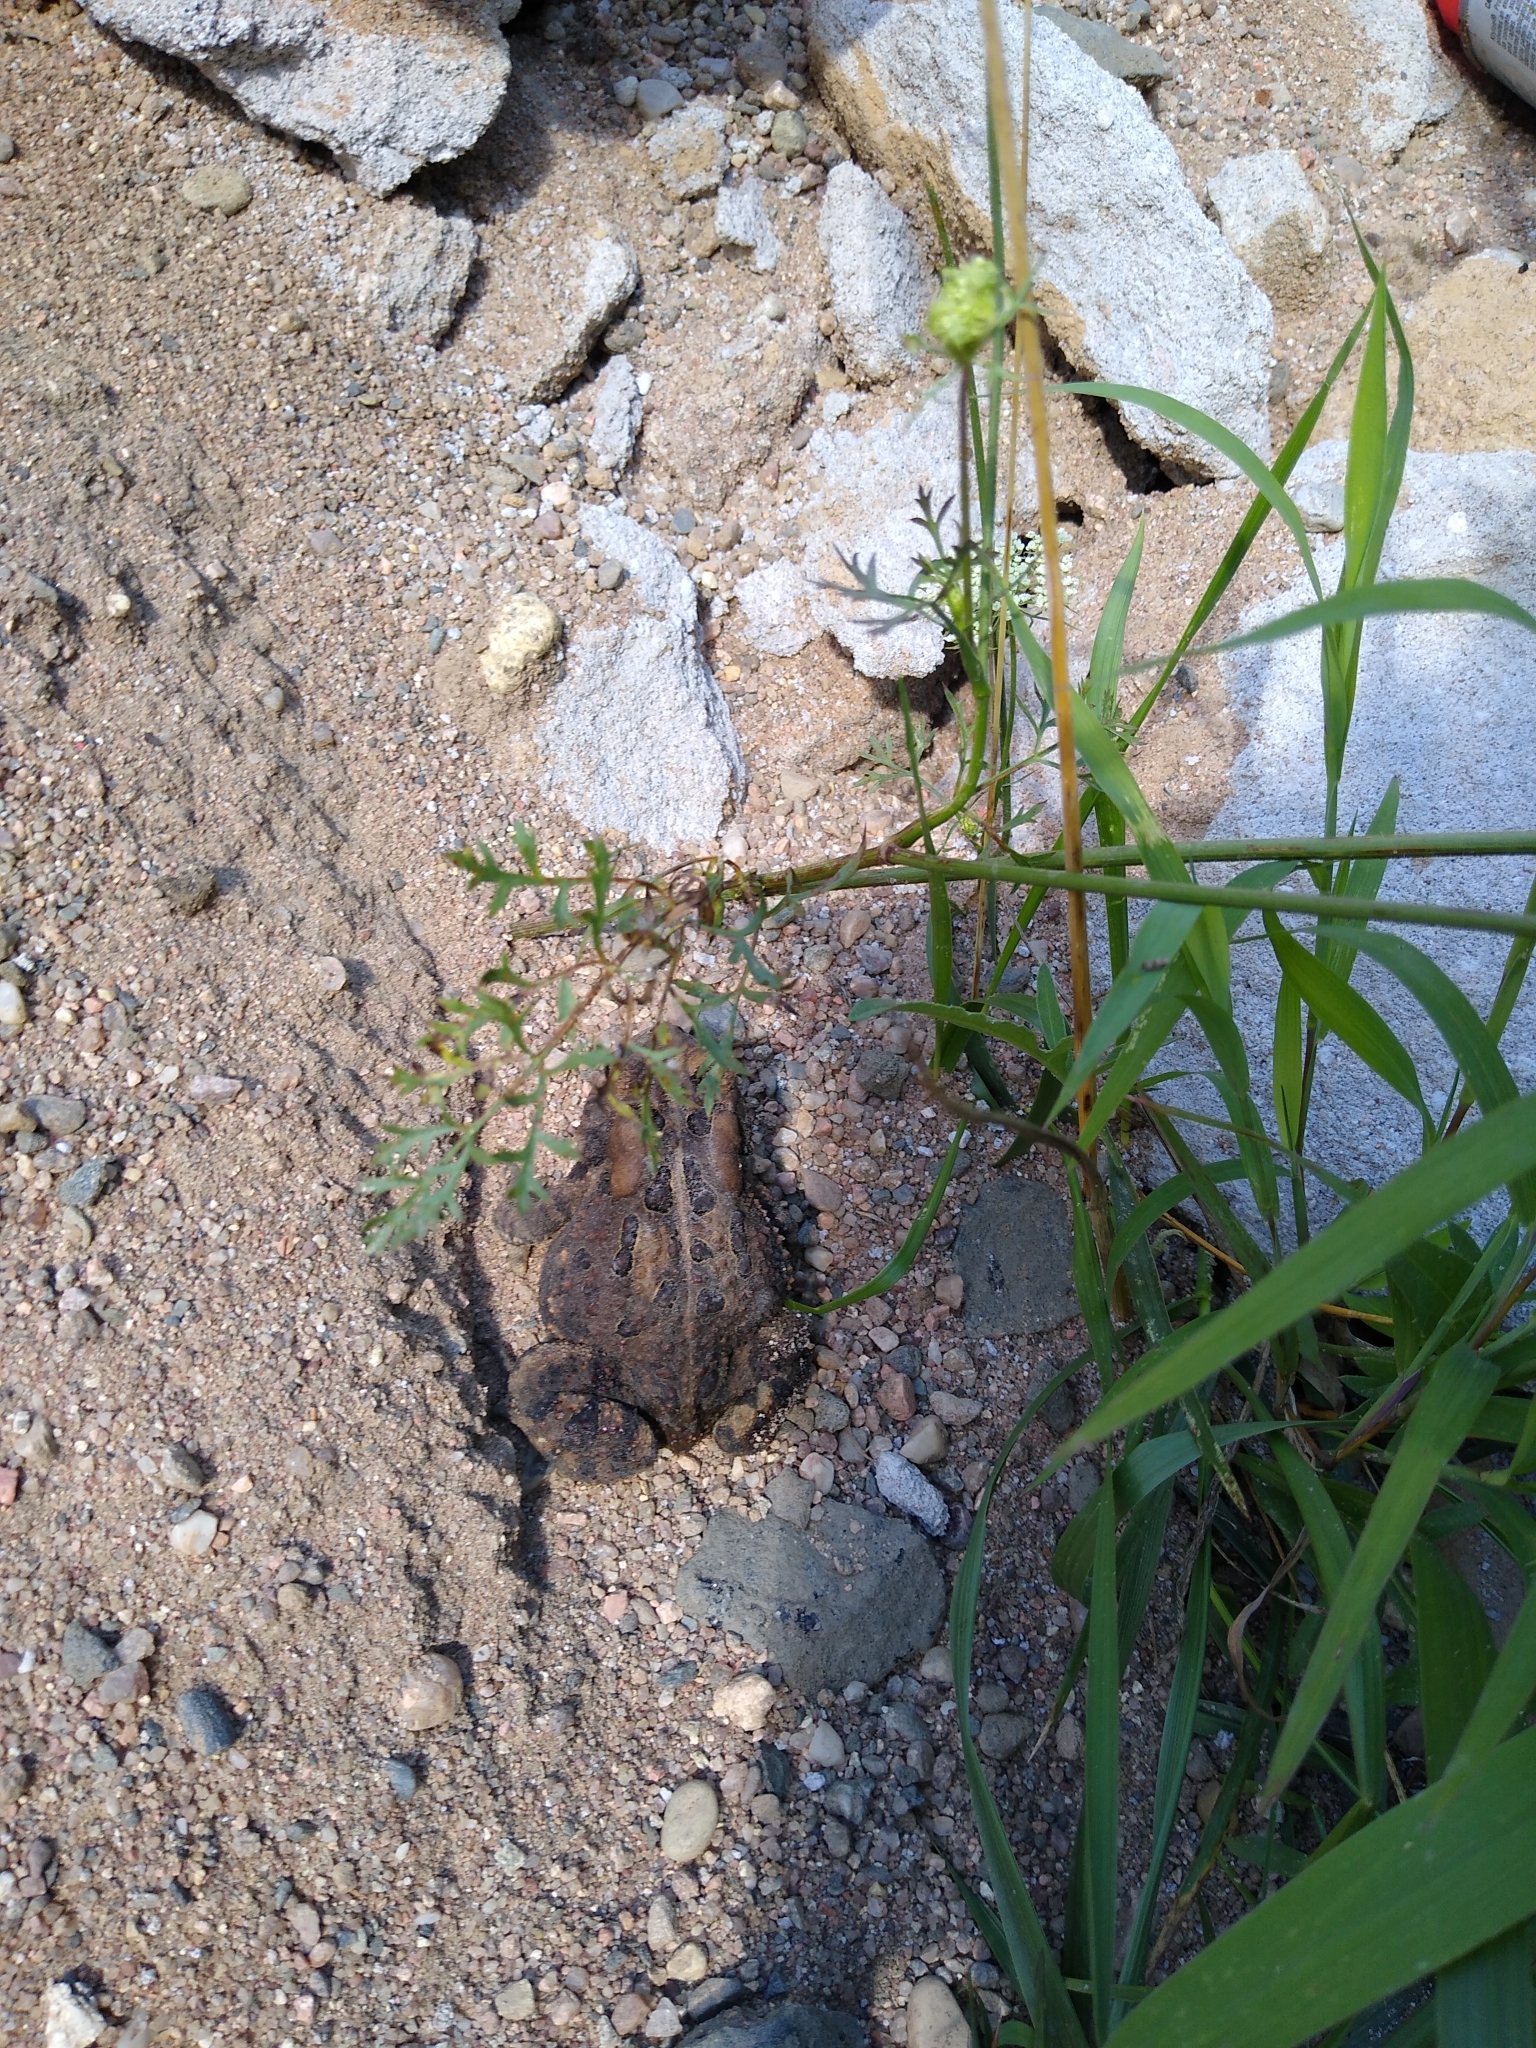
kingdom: Animalia
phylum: Chordata
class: Amphibia
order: Anura
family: Bufonidae
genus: Anaxyrus
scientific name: Anaxyrus americanus
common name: American toad
